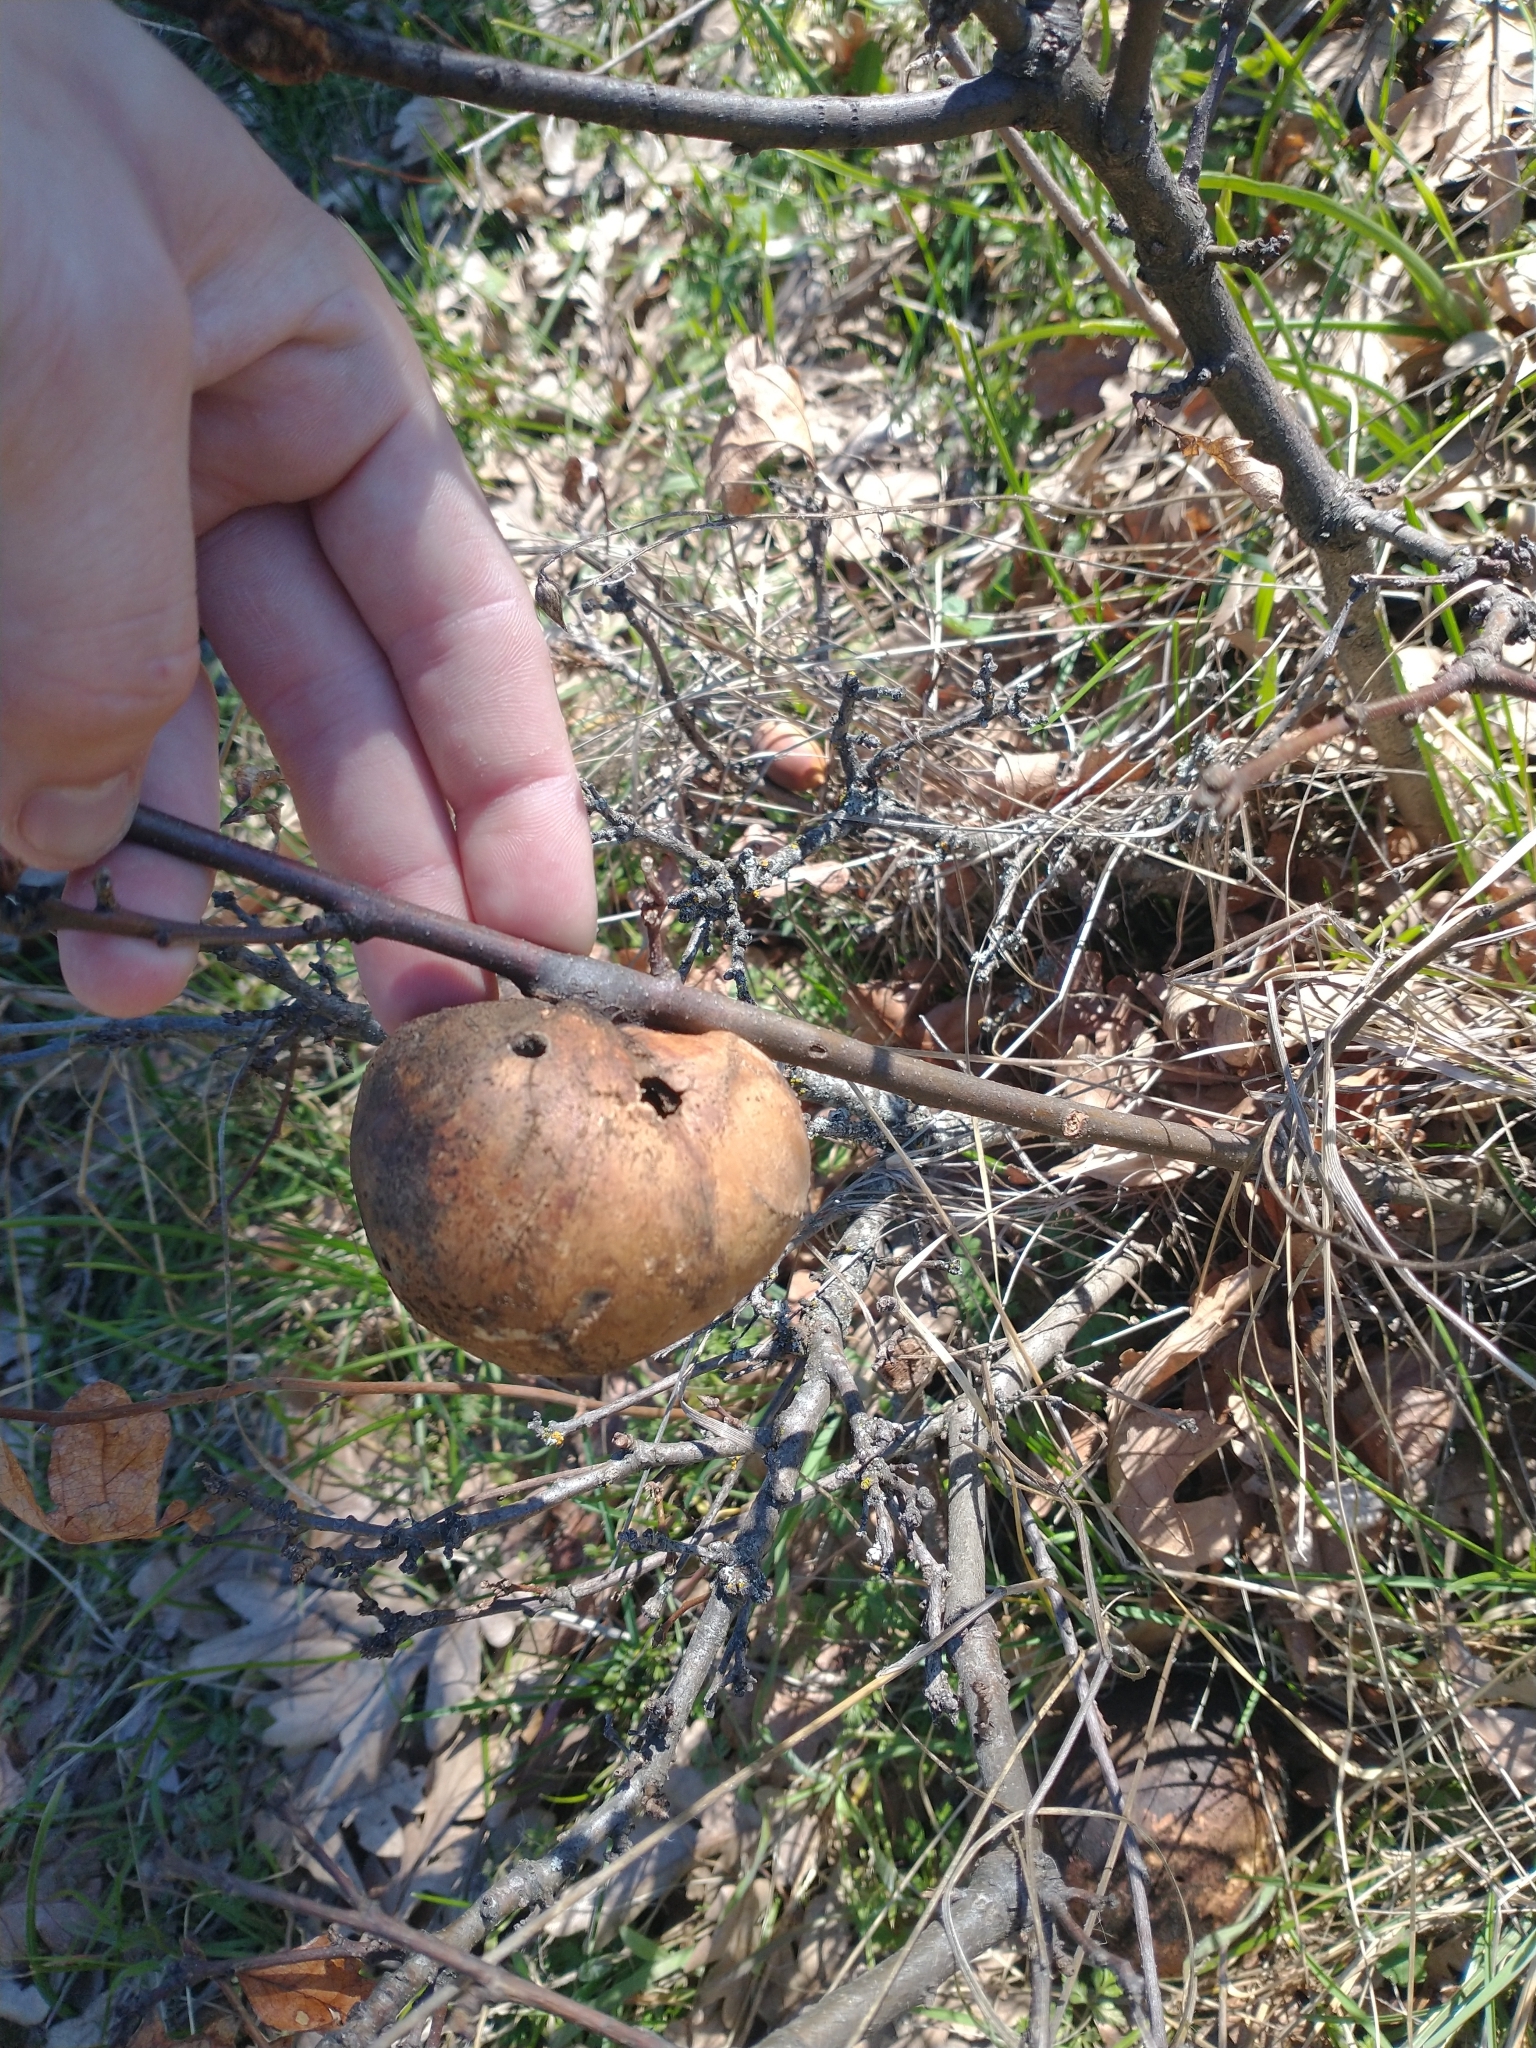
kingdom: Animalia
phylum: Arthropoda
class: Insecta
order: Hymenoptera
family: Cynipidae
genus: Andricus
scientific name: Andricus quercuscalifornicus
